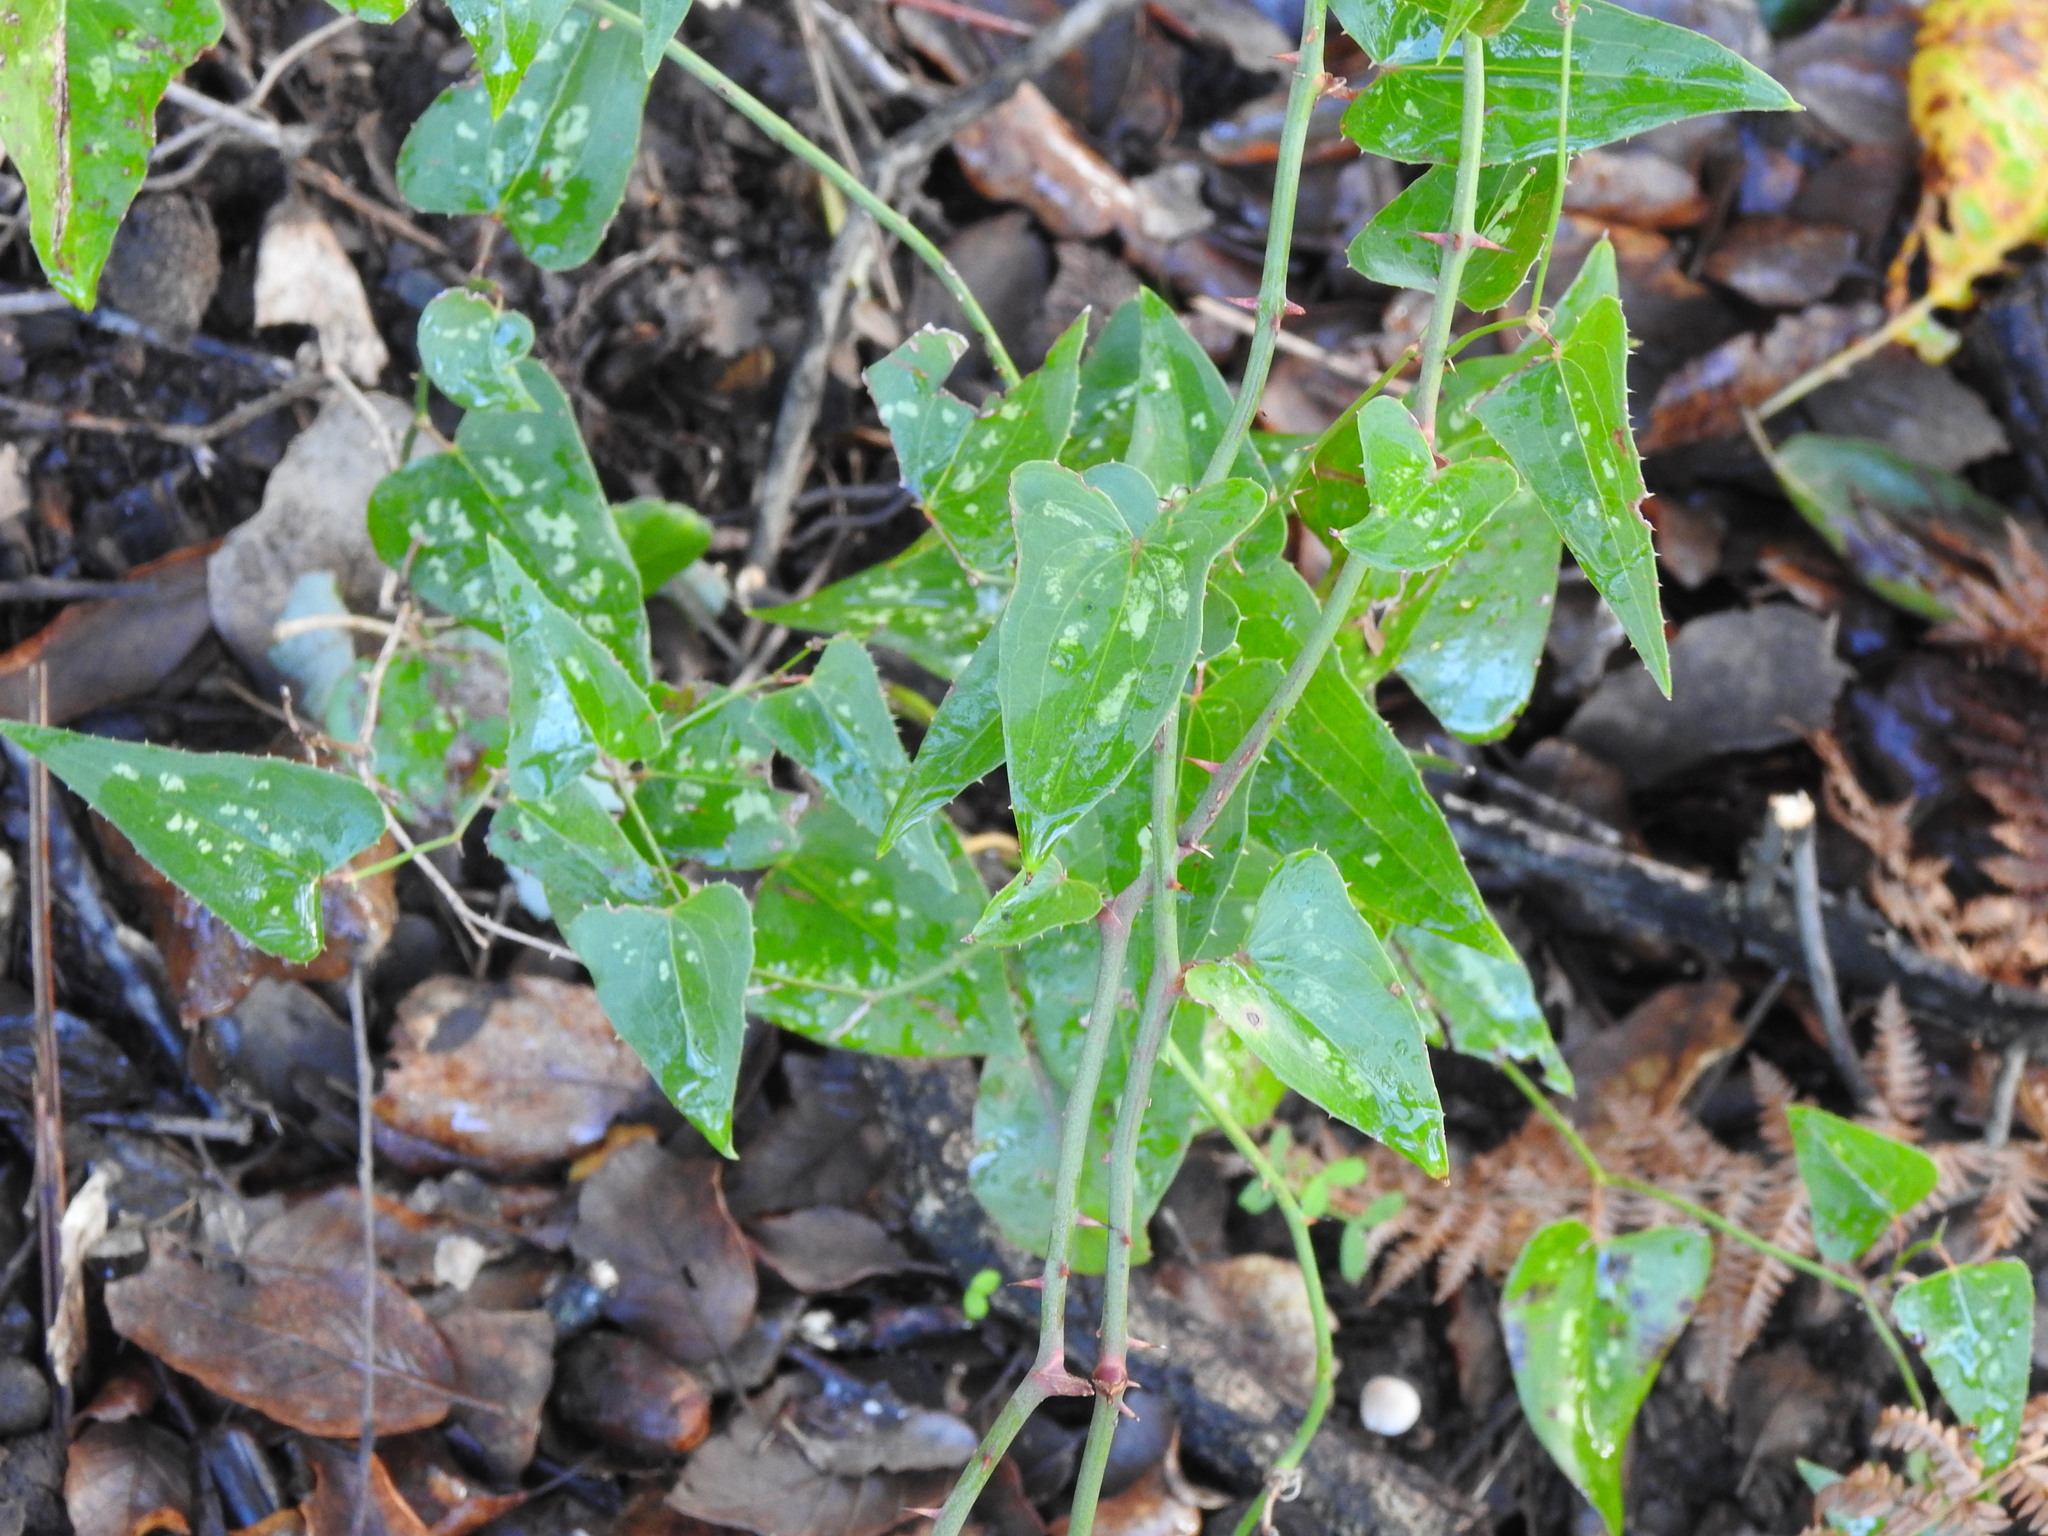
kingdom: Plantae
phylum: Tracheophyta
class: Liliopsida
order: Liliales
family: Smilacaceae
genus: Smilax
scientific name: Smilax aspera
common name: Common smilax
